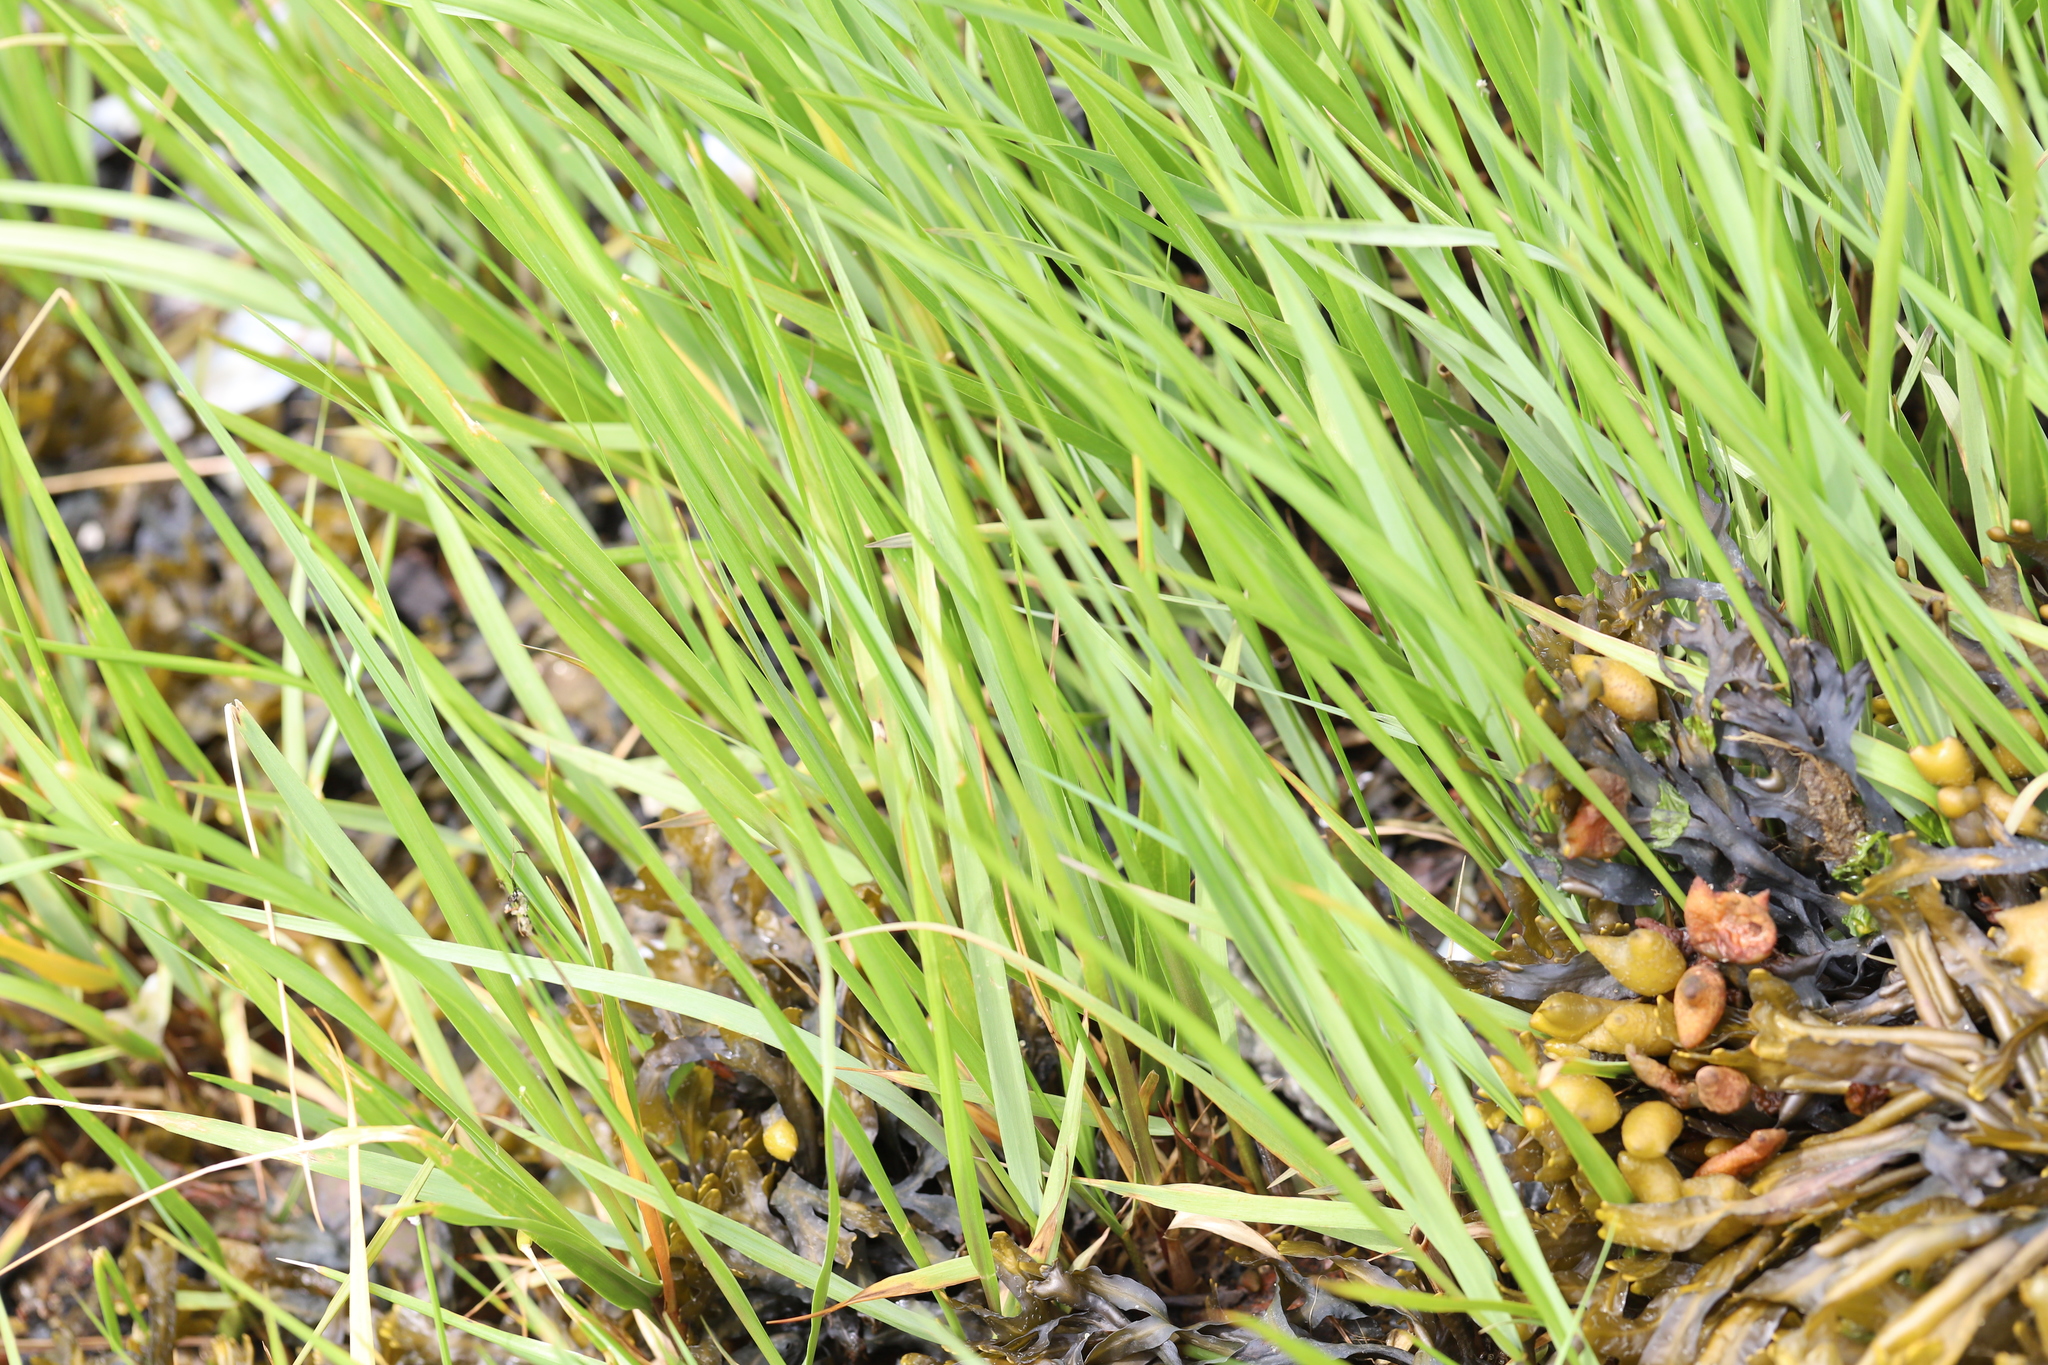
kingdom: Plantae
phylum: Tracheophyta
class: Liliopsida
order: Poales
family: Poaceae
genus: Sporobolus
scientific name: Sporobolus alterniflorus
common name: Atlantic cordgrass
